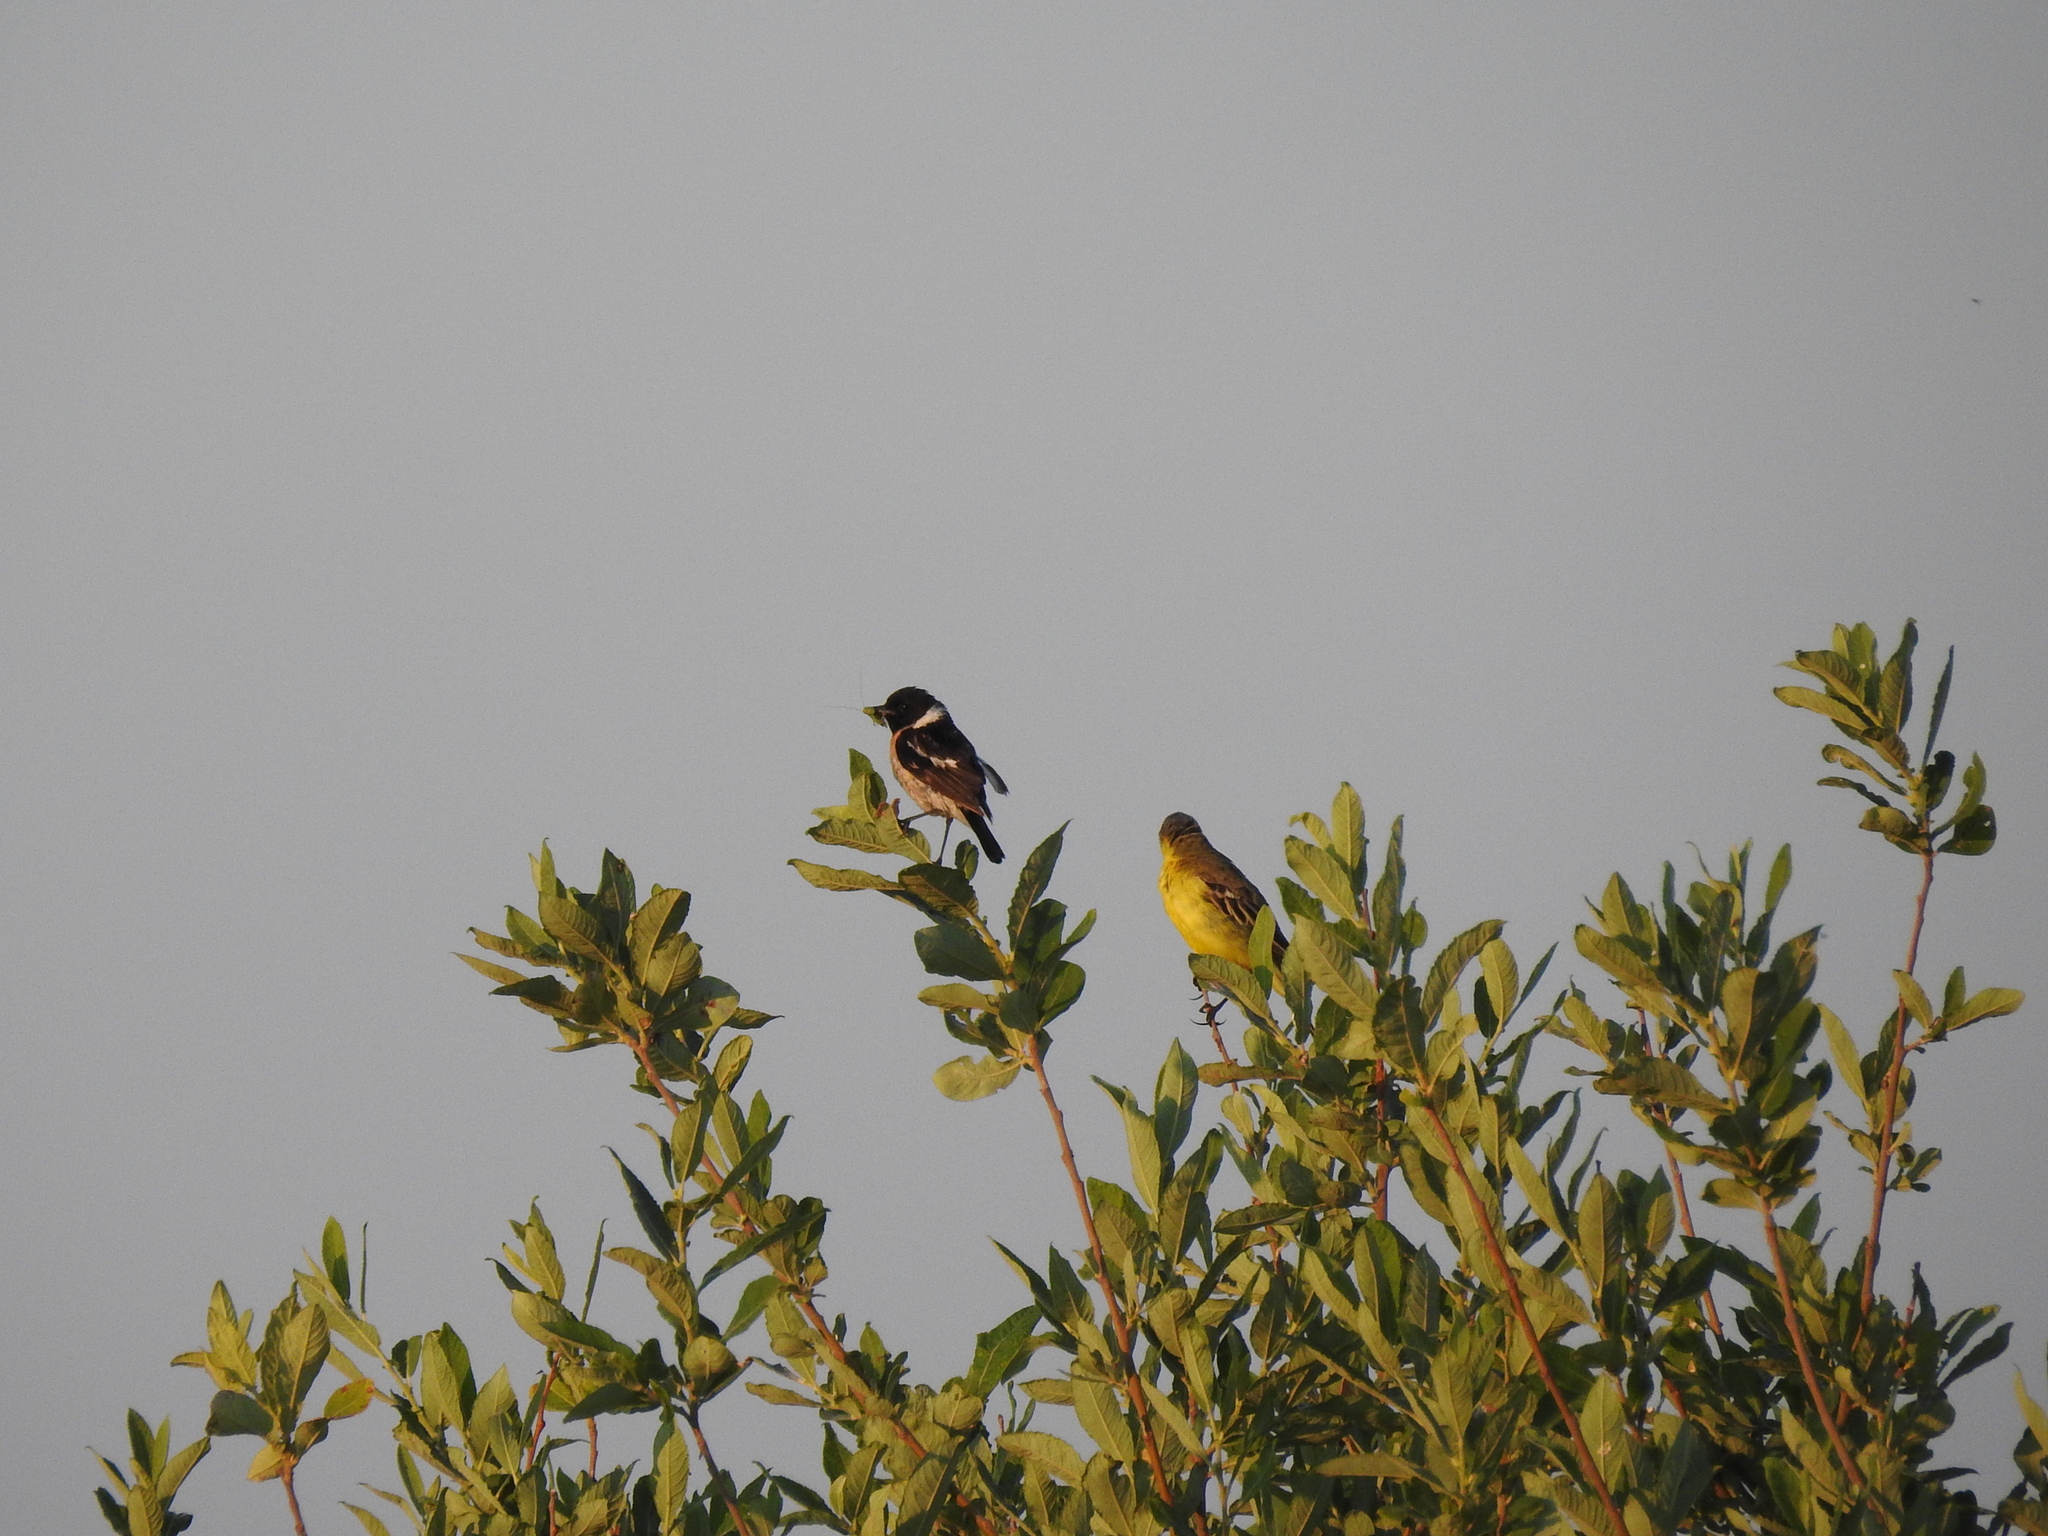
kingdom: Animalia
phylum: Chordata
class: Aves
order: Passeriformes
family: Muscicapidae
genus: Saxicola
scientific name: Saxicola maurus
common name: Siberian stonechat
